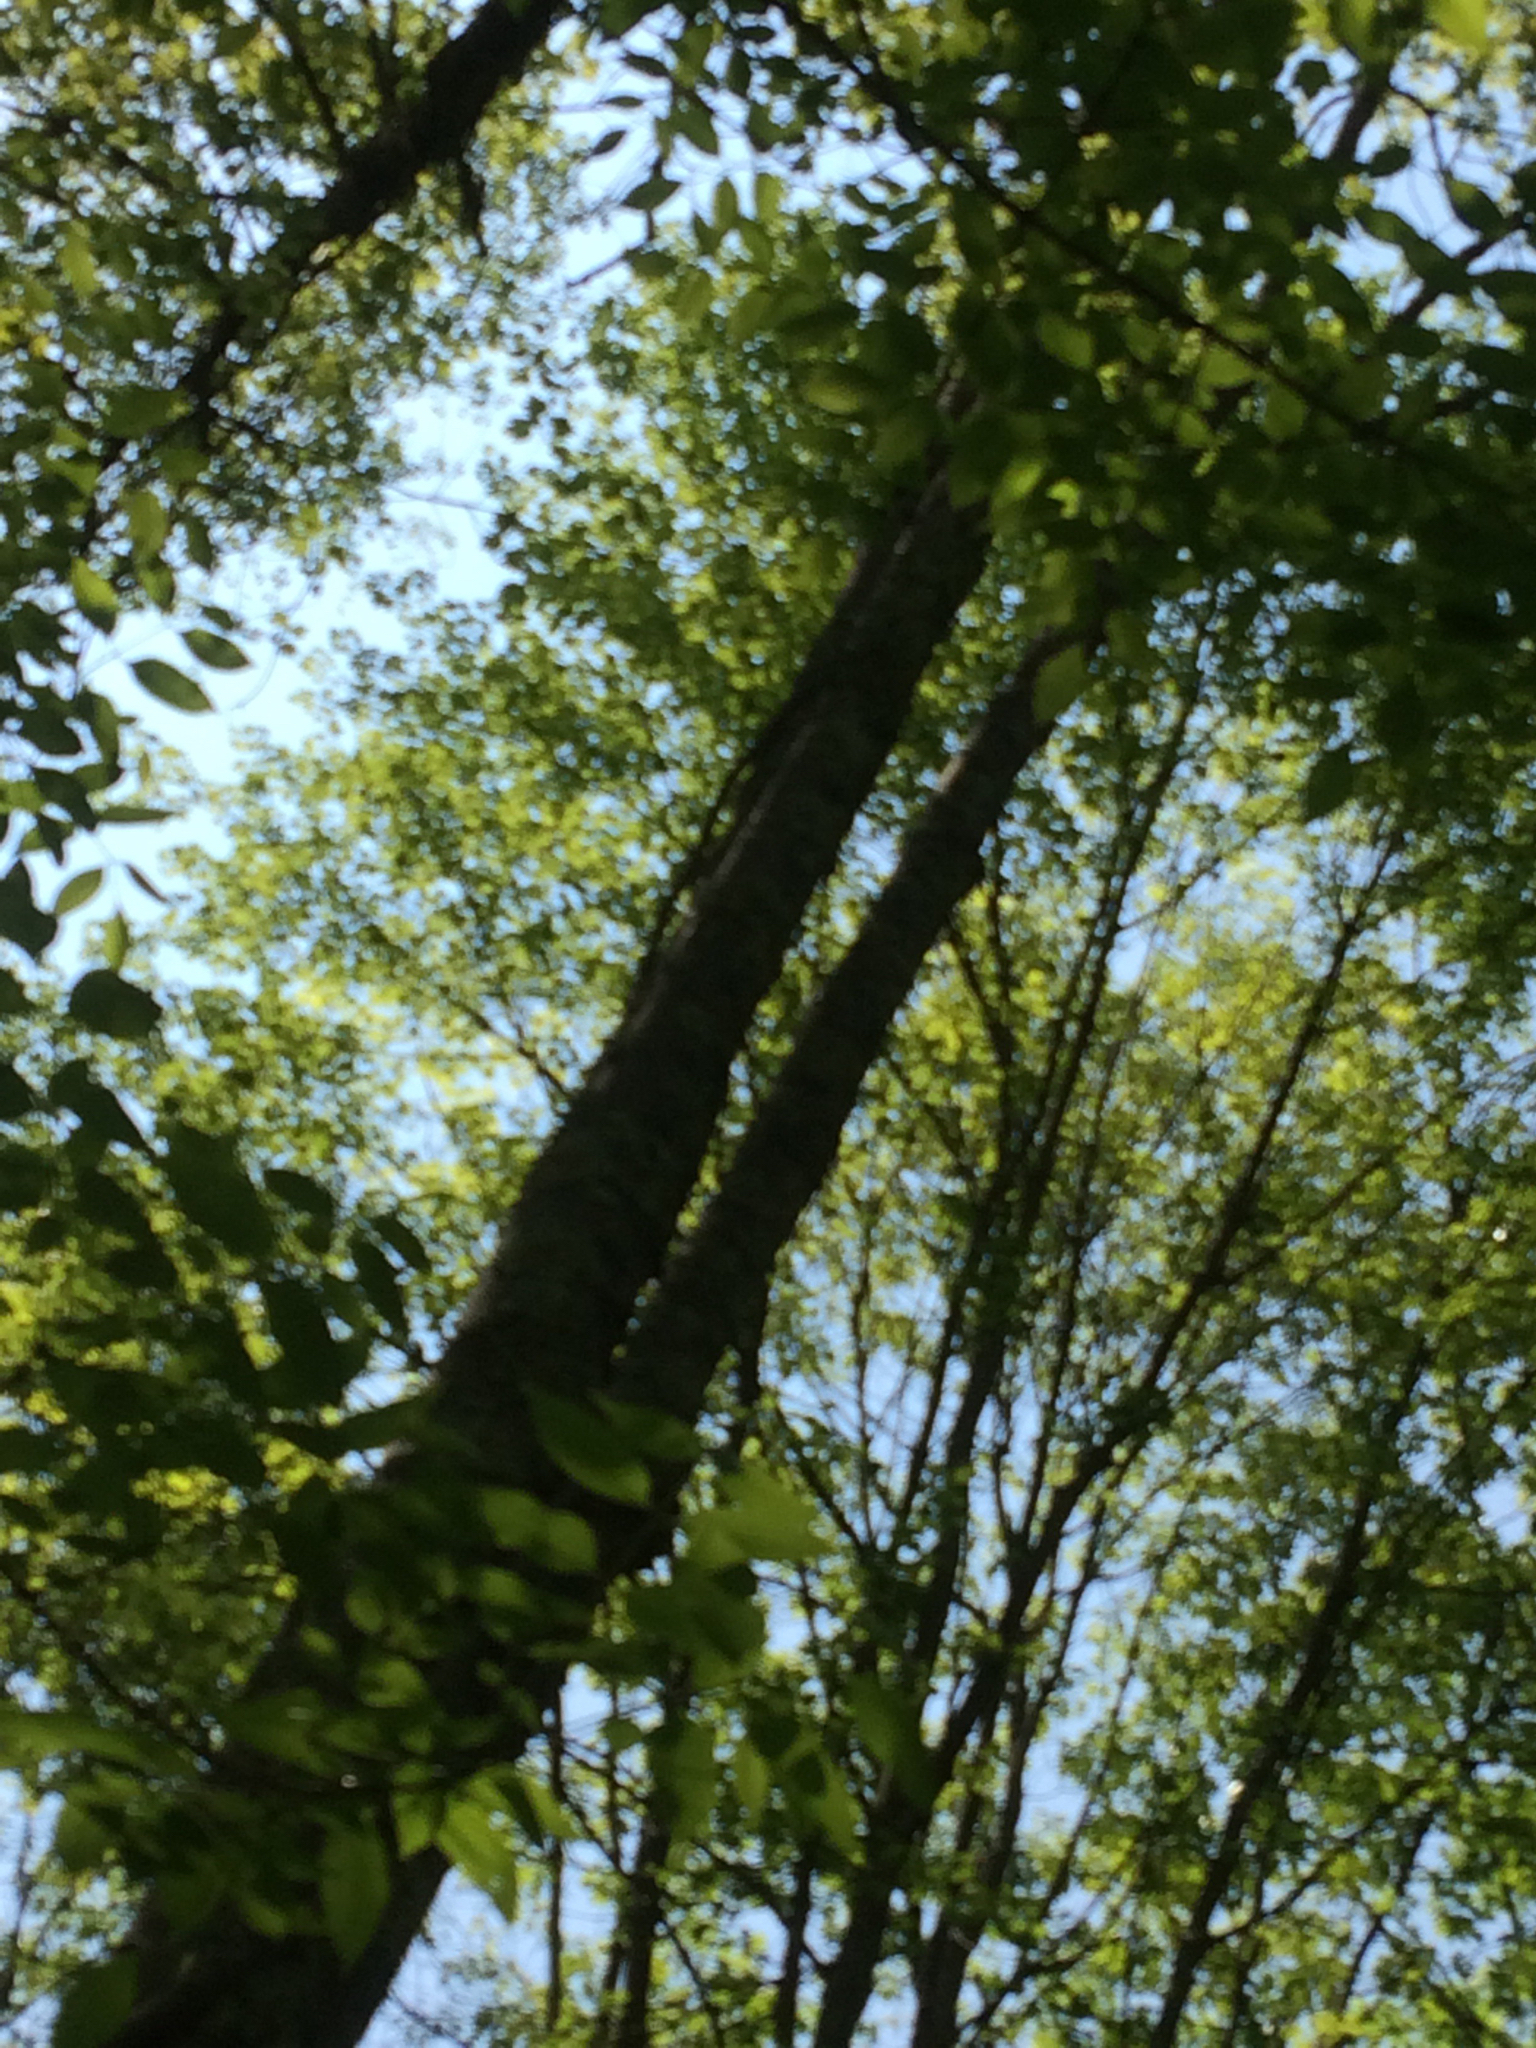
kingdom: Plantae
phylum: Tracheophyta
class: Magnoliopsida
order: Lamiales
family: Oleaceae
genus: Fraxinus
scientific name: Fraxinus americana
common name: White ash
